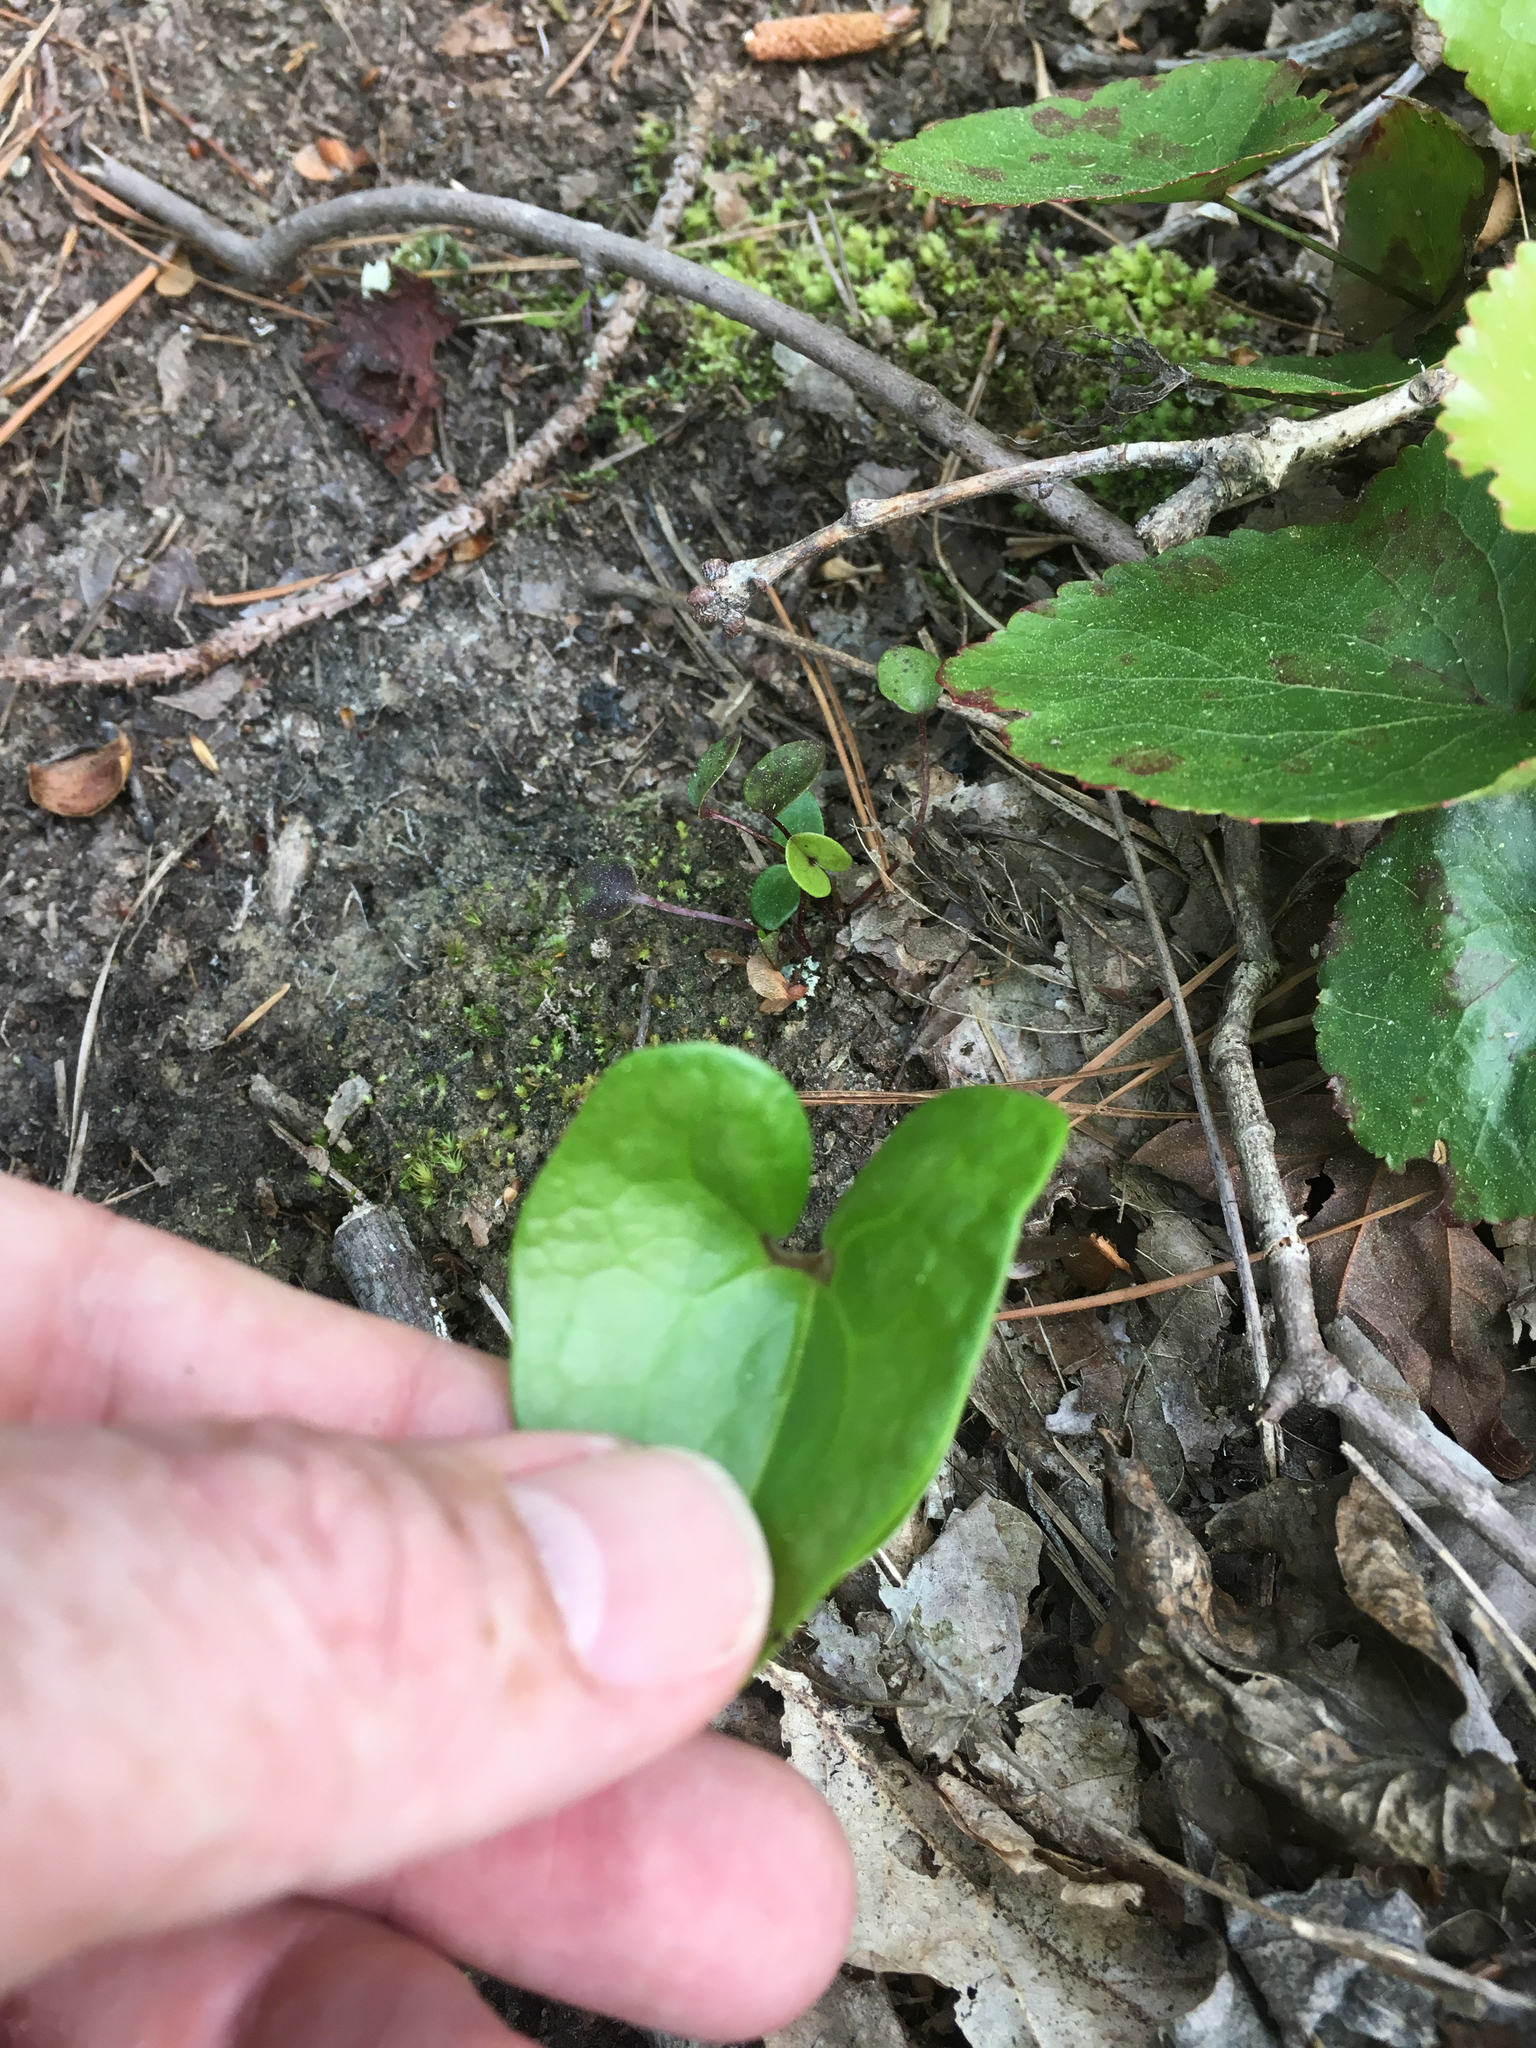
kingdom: Plantae
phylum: Tracheophyta
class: Magnoliopsida
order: Piperales
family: Aristolochiaceae
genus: Hexastylis
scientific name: Hexastylis arifolia
